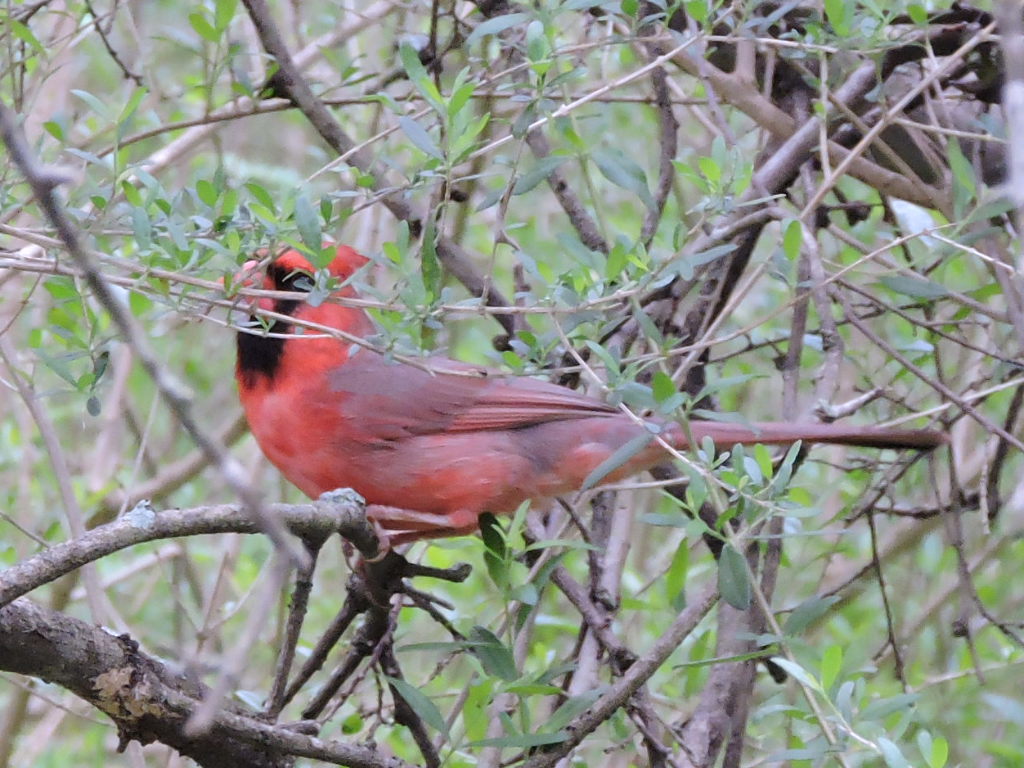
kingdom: Animalia
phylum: Chordata
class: Aves
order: Passeriformes
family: Cardinalidae
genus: Cardinalis
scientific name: Cardinalis cardinalis
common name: Northern cardinal
